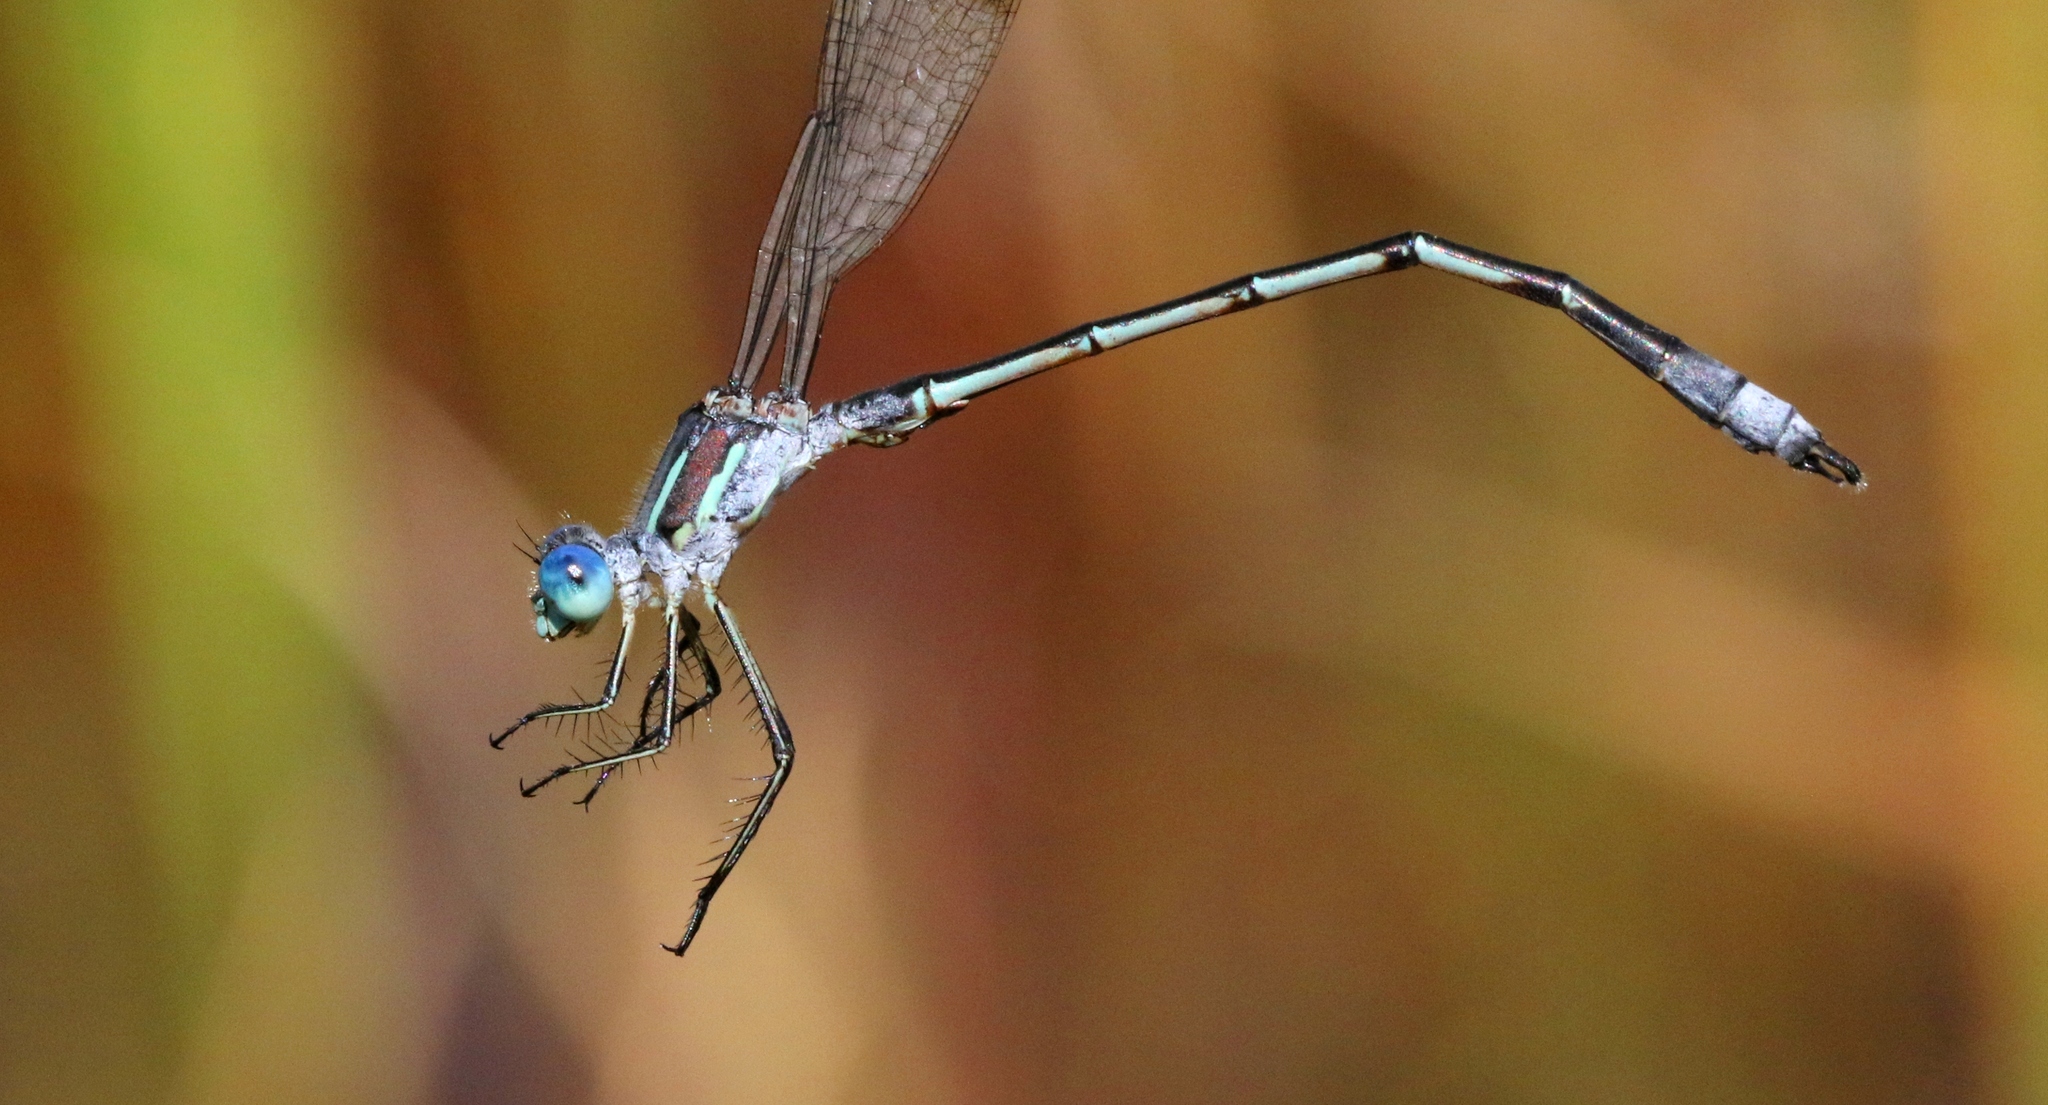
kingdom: Animalia
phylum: Arthropoda
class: Insecta
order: Odonata
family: Lestidae
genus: Lestes
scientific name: Lestes unguiculatus
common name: Lyre-tipped spreadwing
